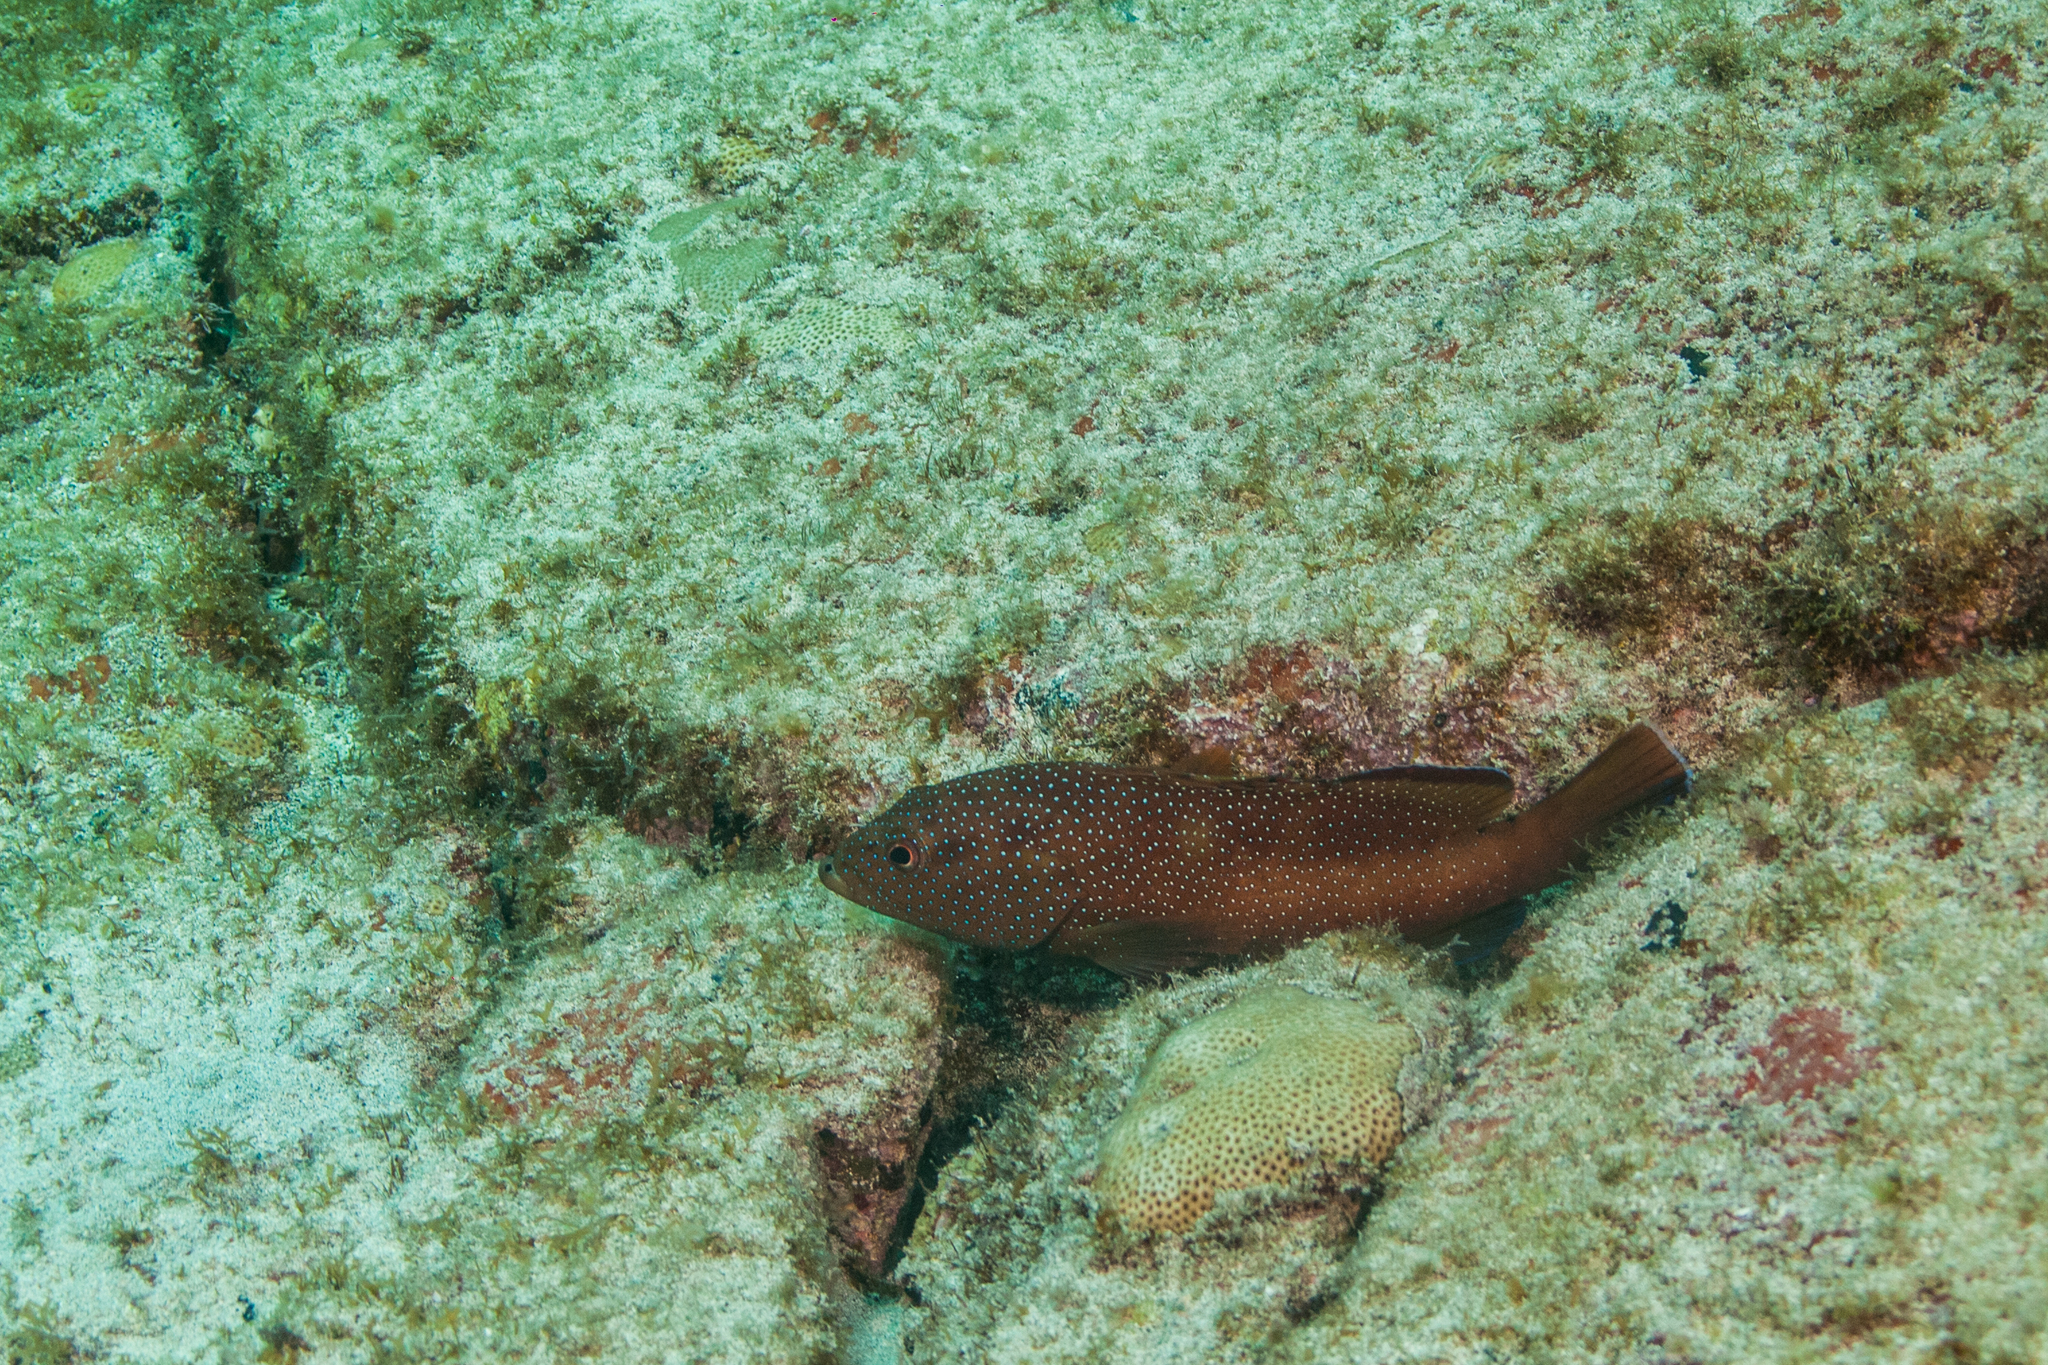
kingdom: Animalia
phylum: Chordata
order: Perciformes
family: Serranidae
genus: Cephalopholis
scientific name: Cephalopholis fulva
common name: Butterfish
